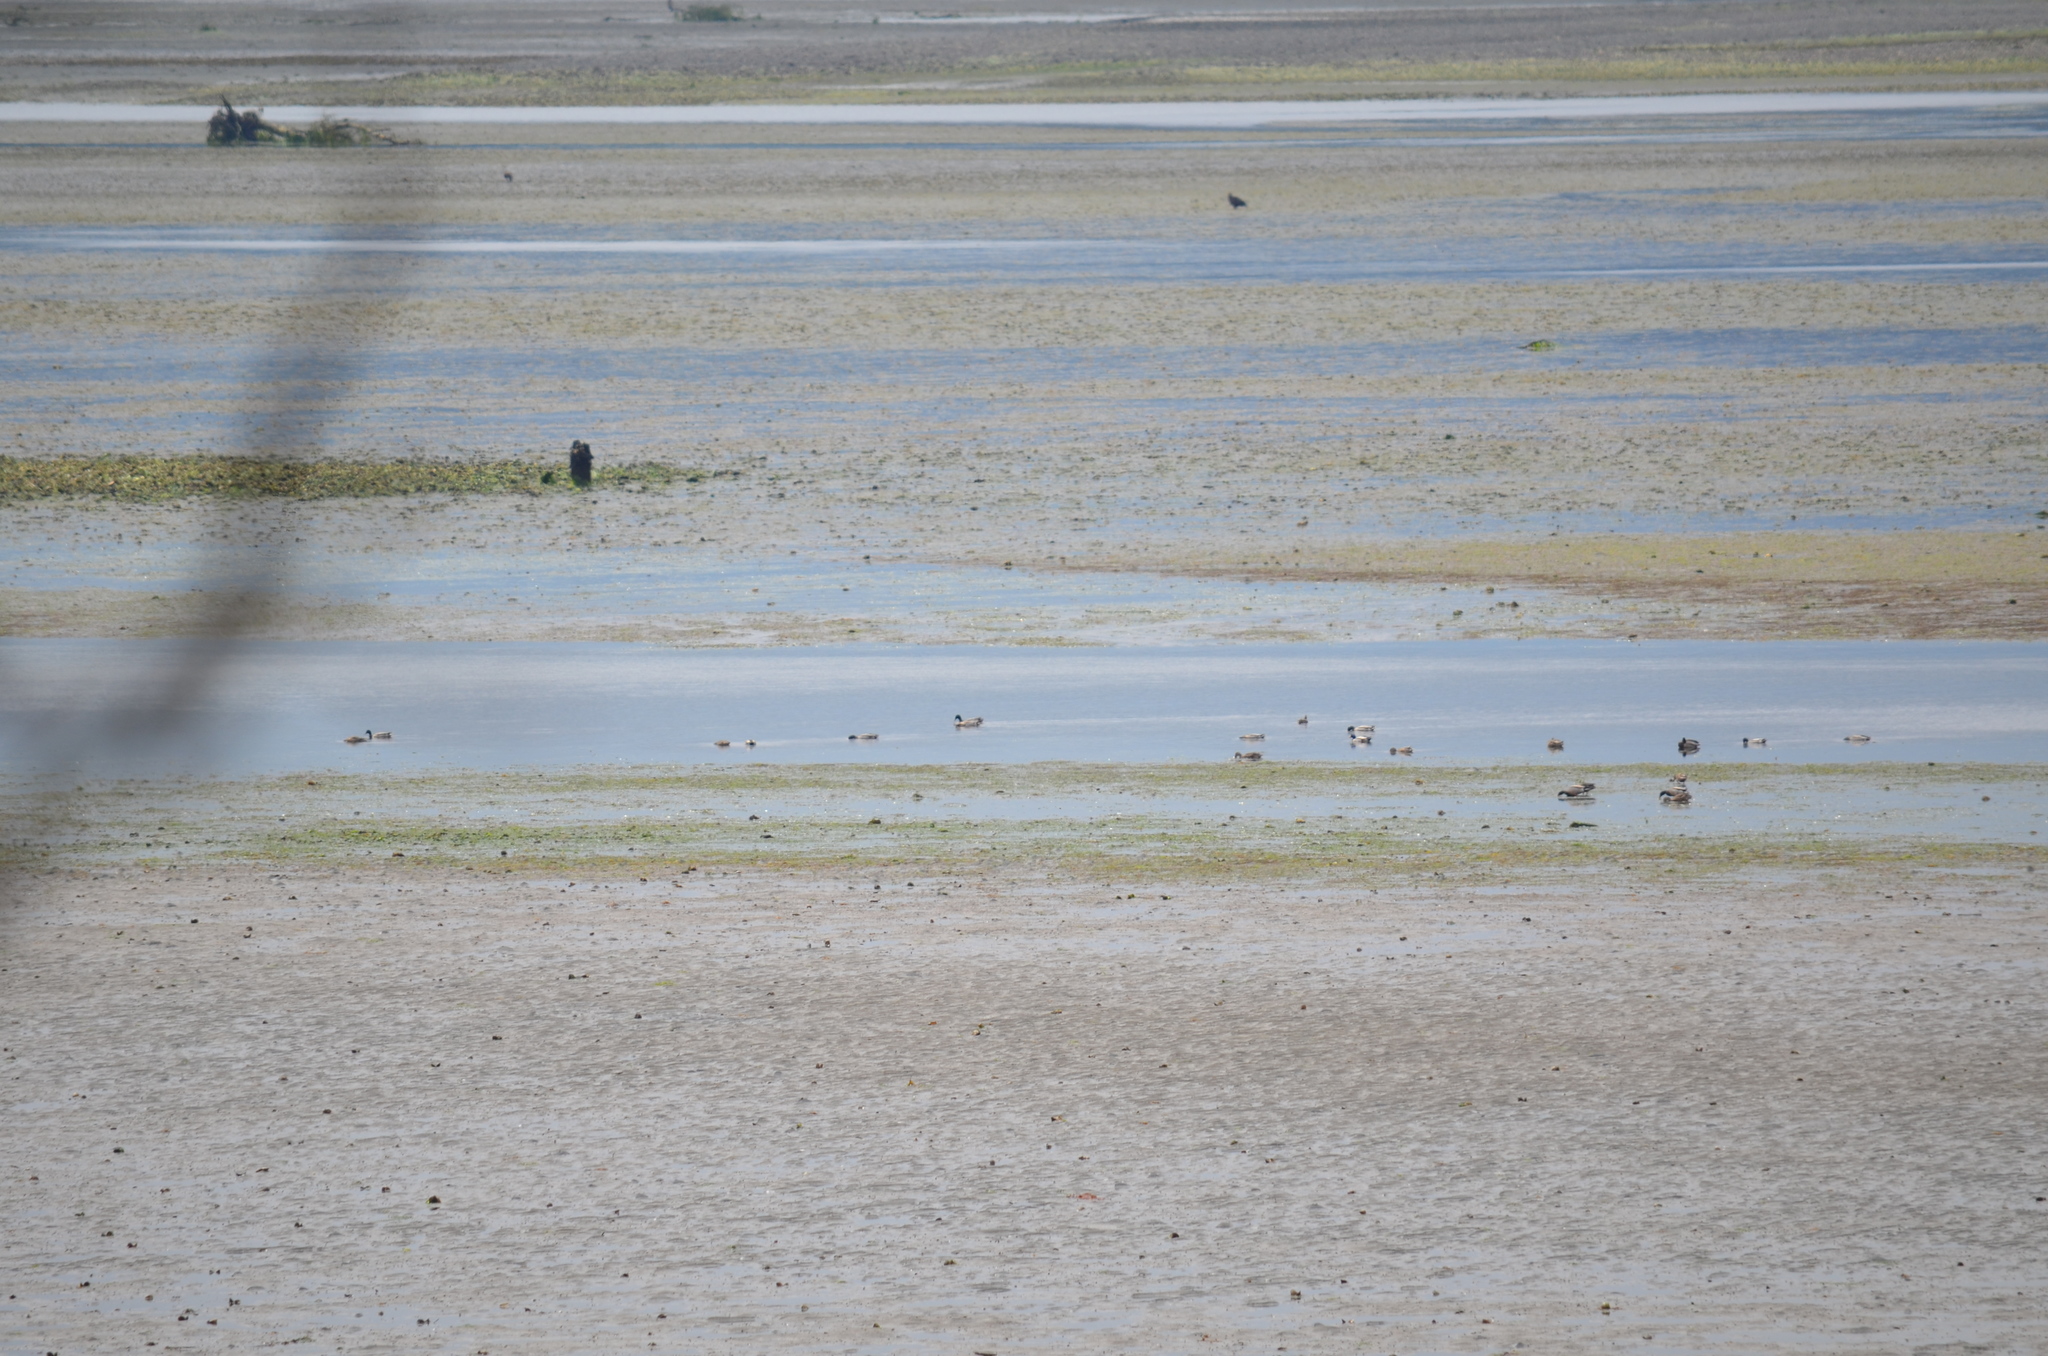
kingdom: Animalia
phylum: Chordata
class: Aves
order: Anseriformes
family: Anatidae
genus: Anas
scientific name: Anas platyrhynchos
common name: Mallard
